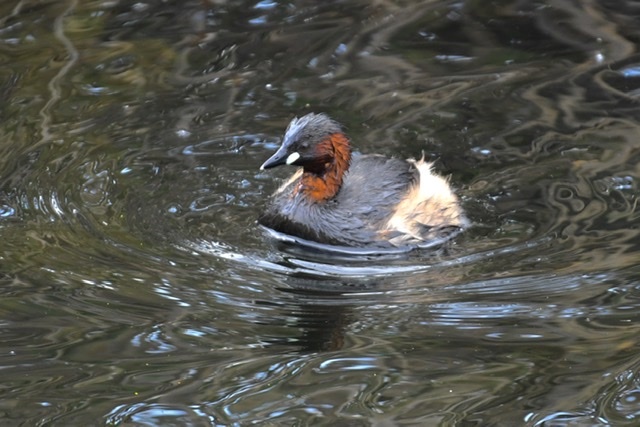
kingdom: Animalia
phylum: Chordata
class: Aves
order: Podicipediformes
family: Podicipedidae
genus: Tachybaptus
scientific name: Tachybaptus ruficollis
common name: Little grebe
